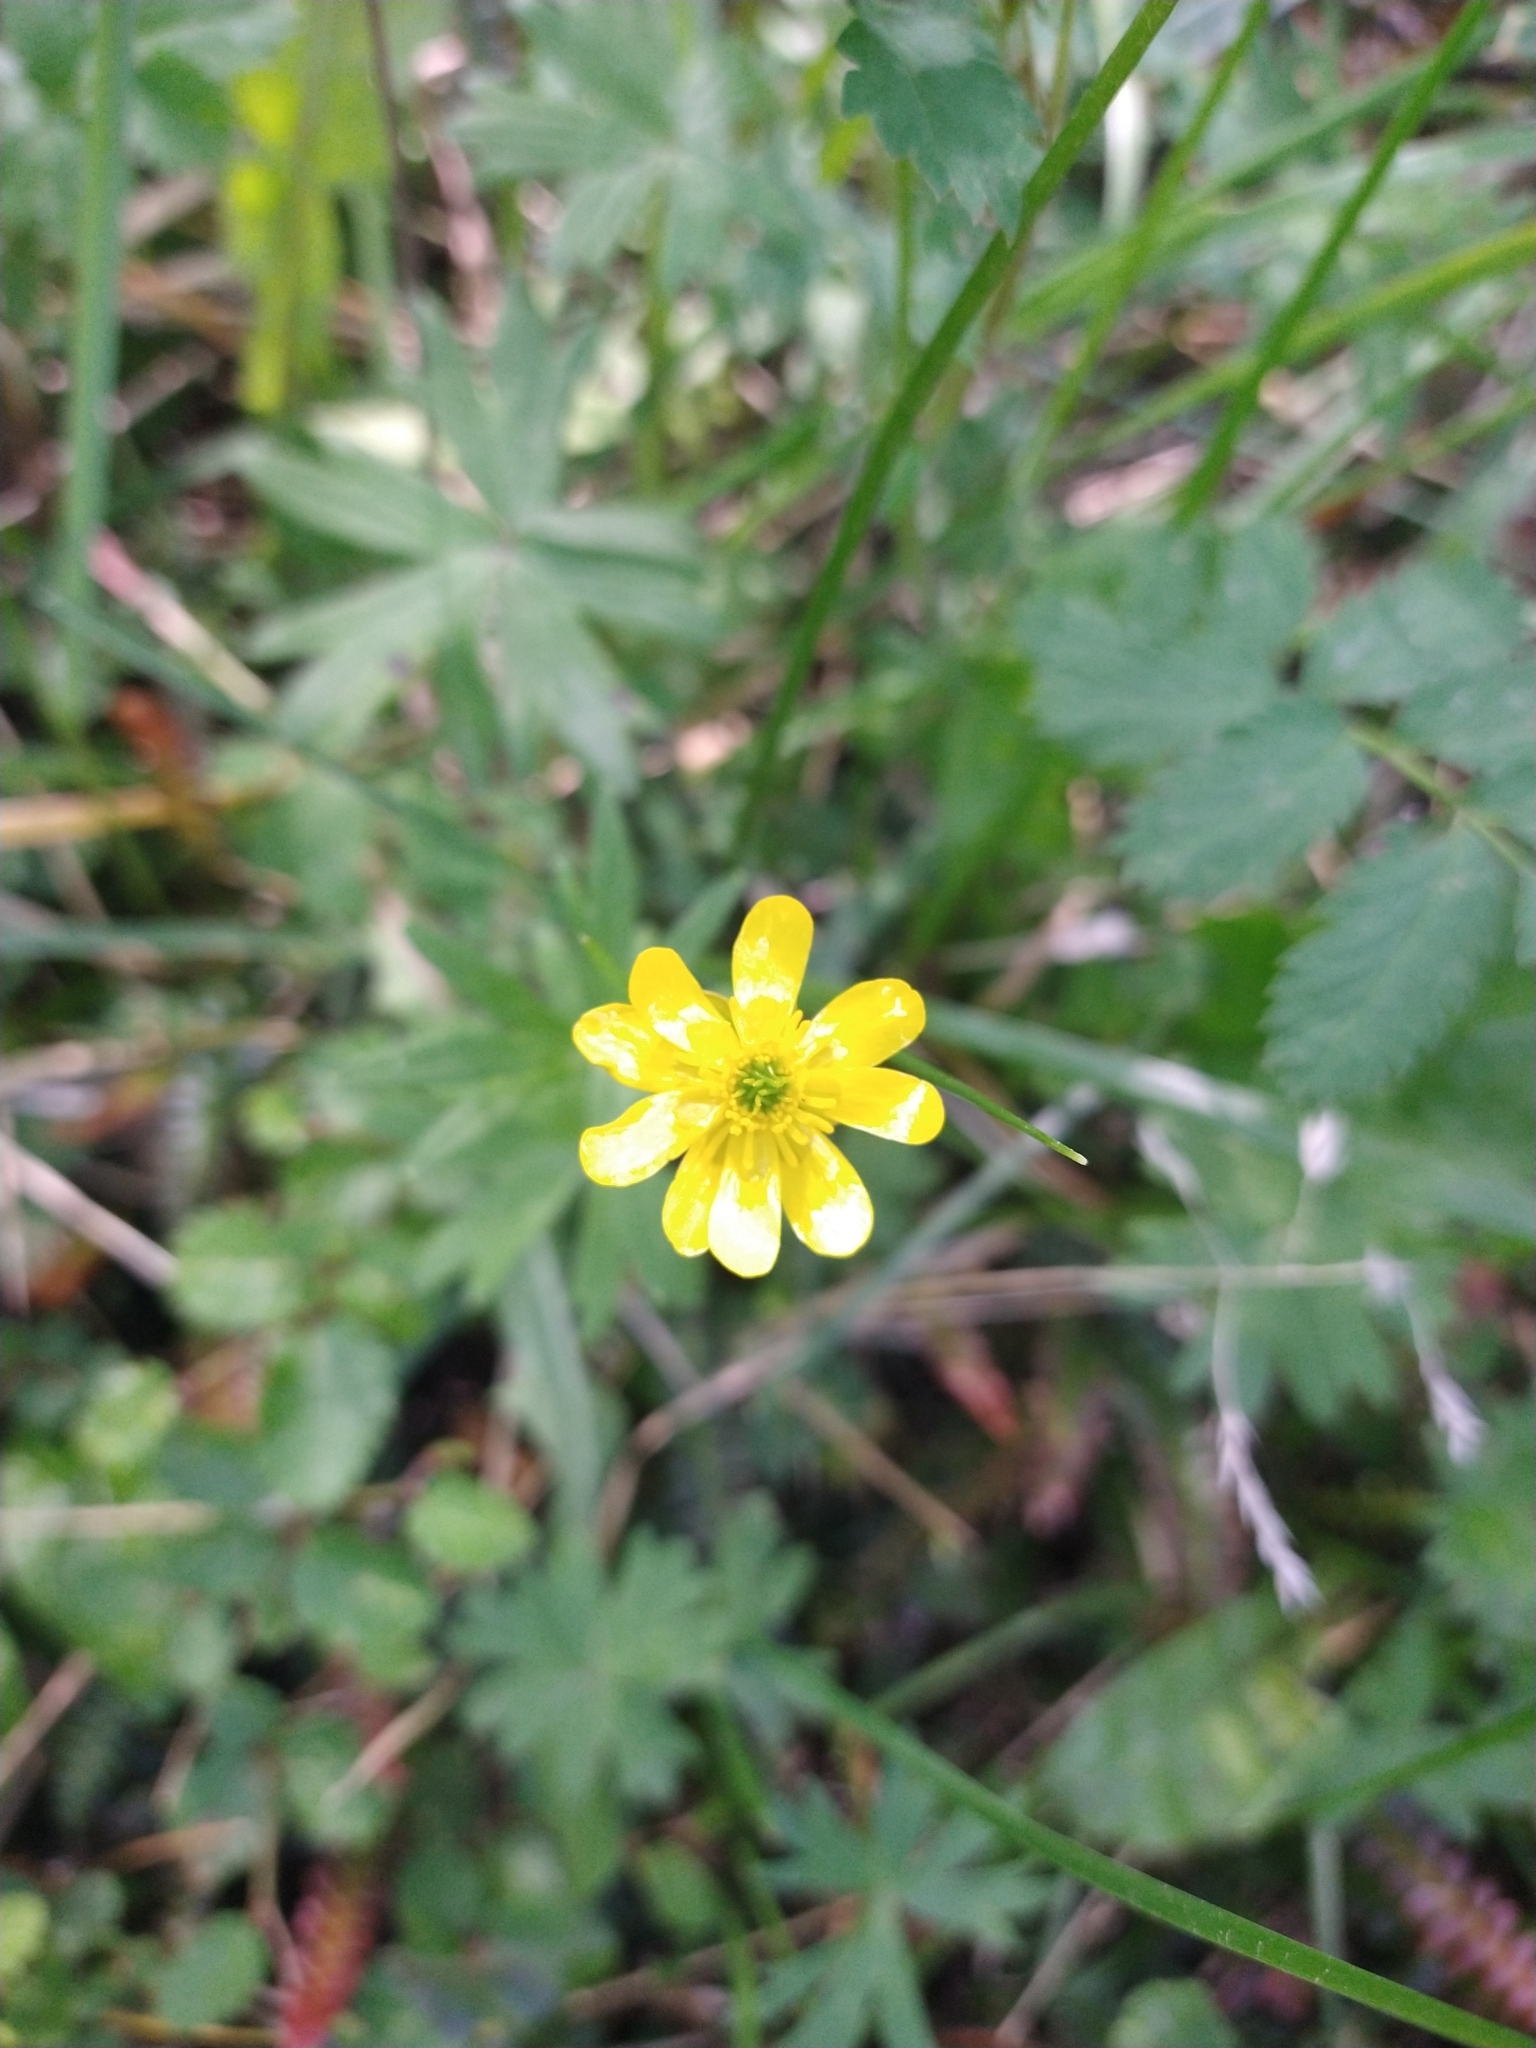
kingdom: Plantae
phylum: Tracheophyta
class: Magnoliopsida
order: Ranunculales
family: Ranunculaceae
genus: Ranunculus
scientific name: Ranunculus peduncularis
